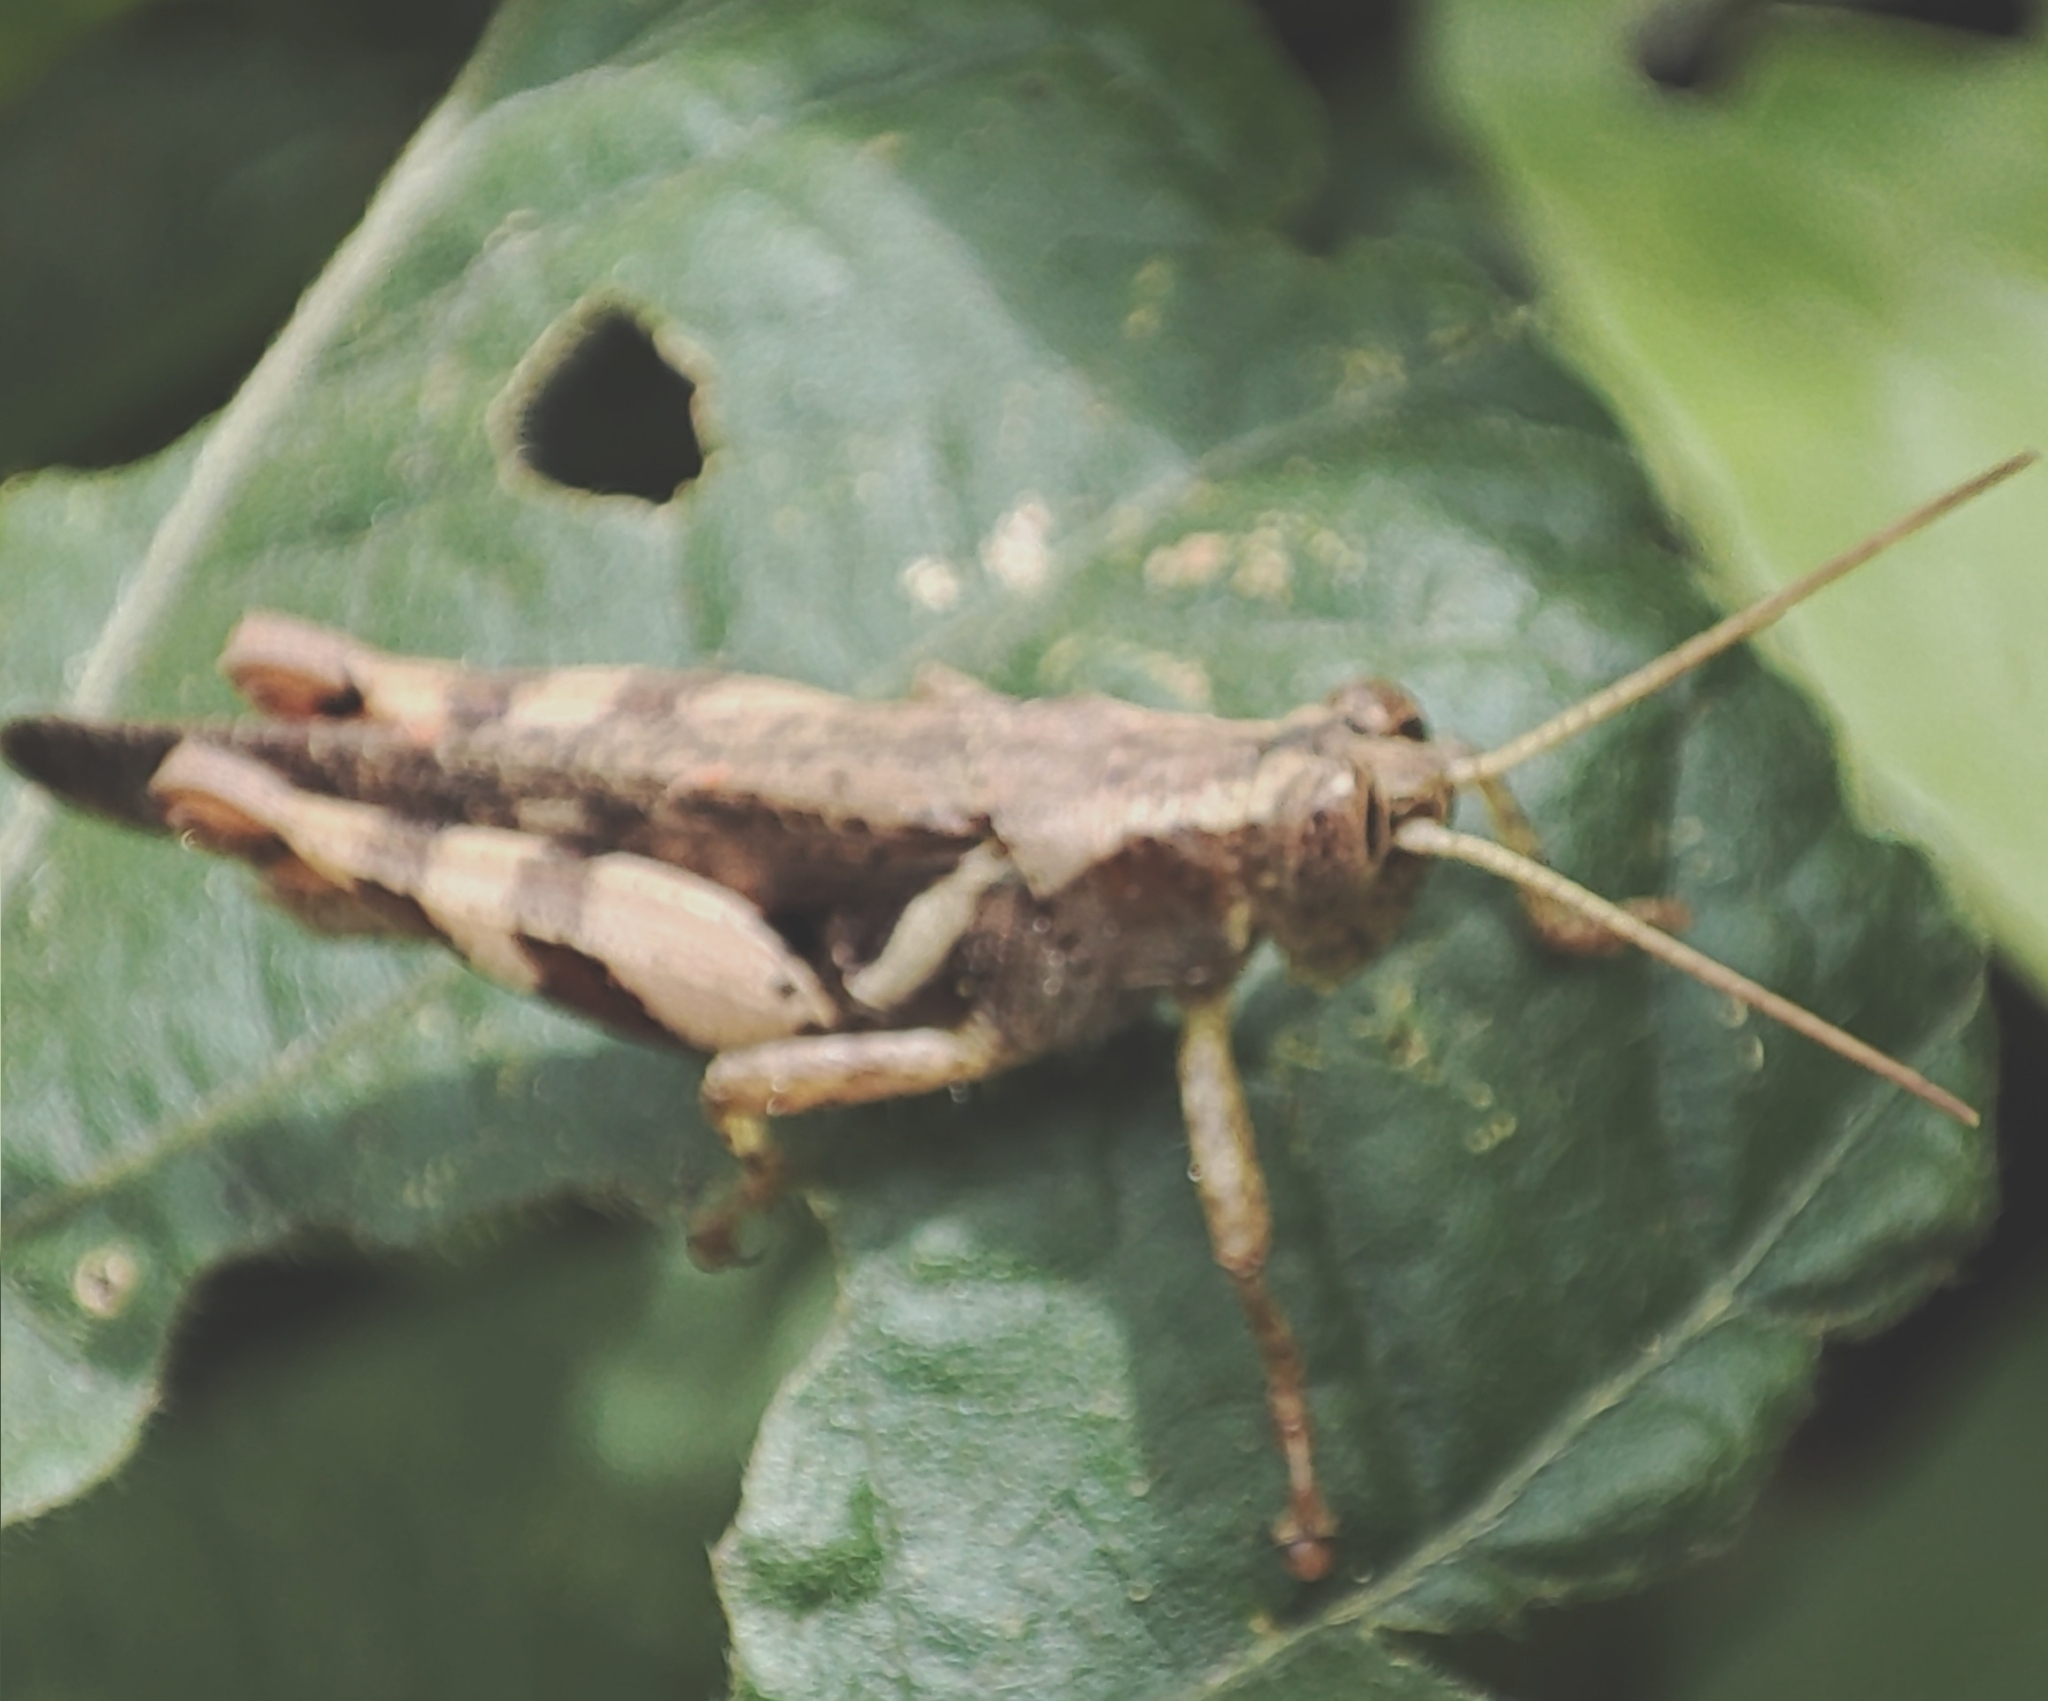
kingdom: Animalia
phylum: Arthropoda
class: Insecta
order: Orthoptera
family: Acrididae
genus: Xenocatantops
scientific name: Xenocatantops humile
